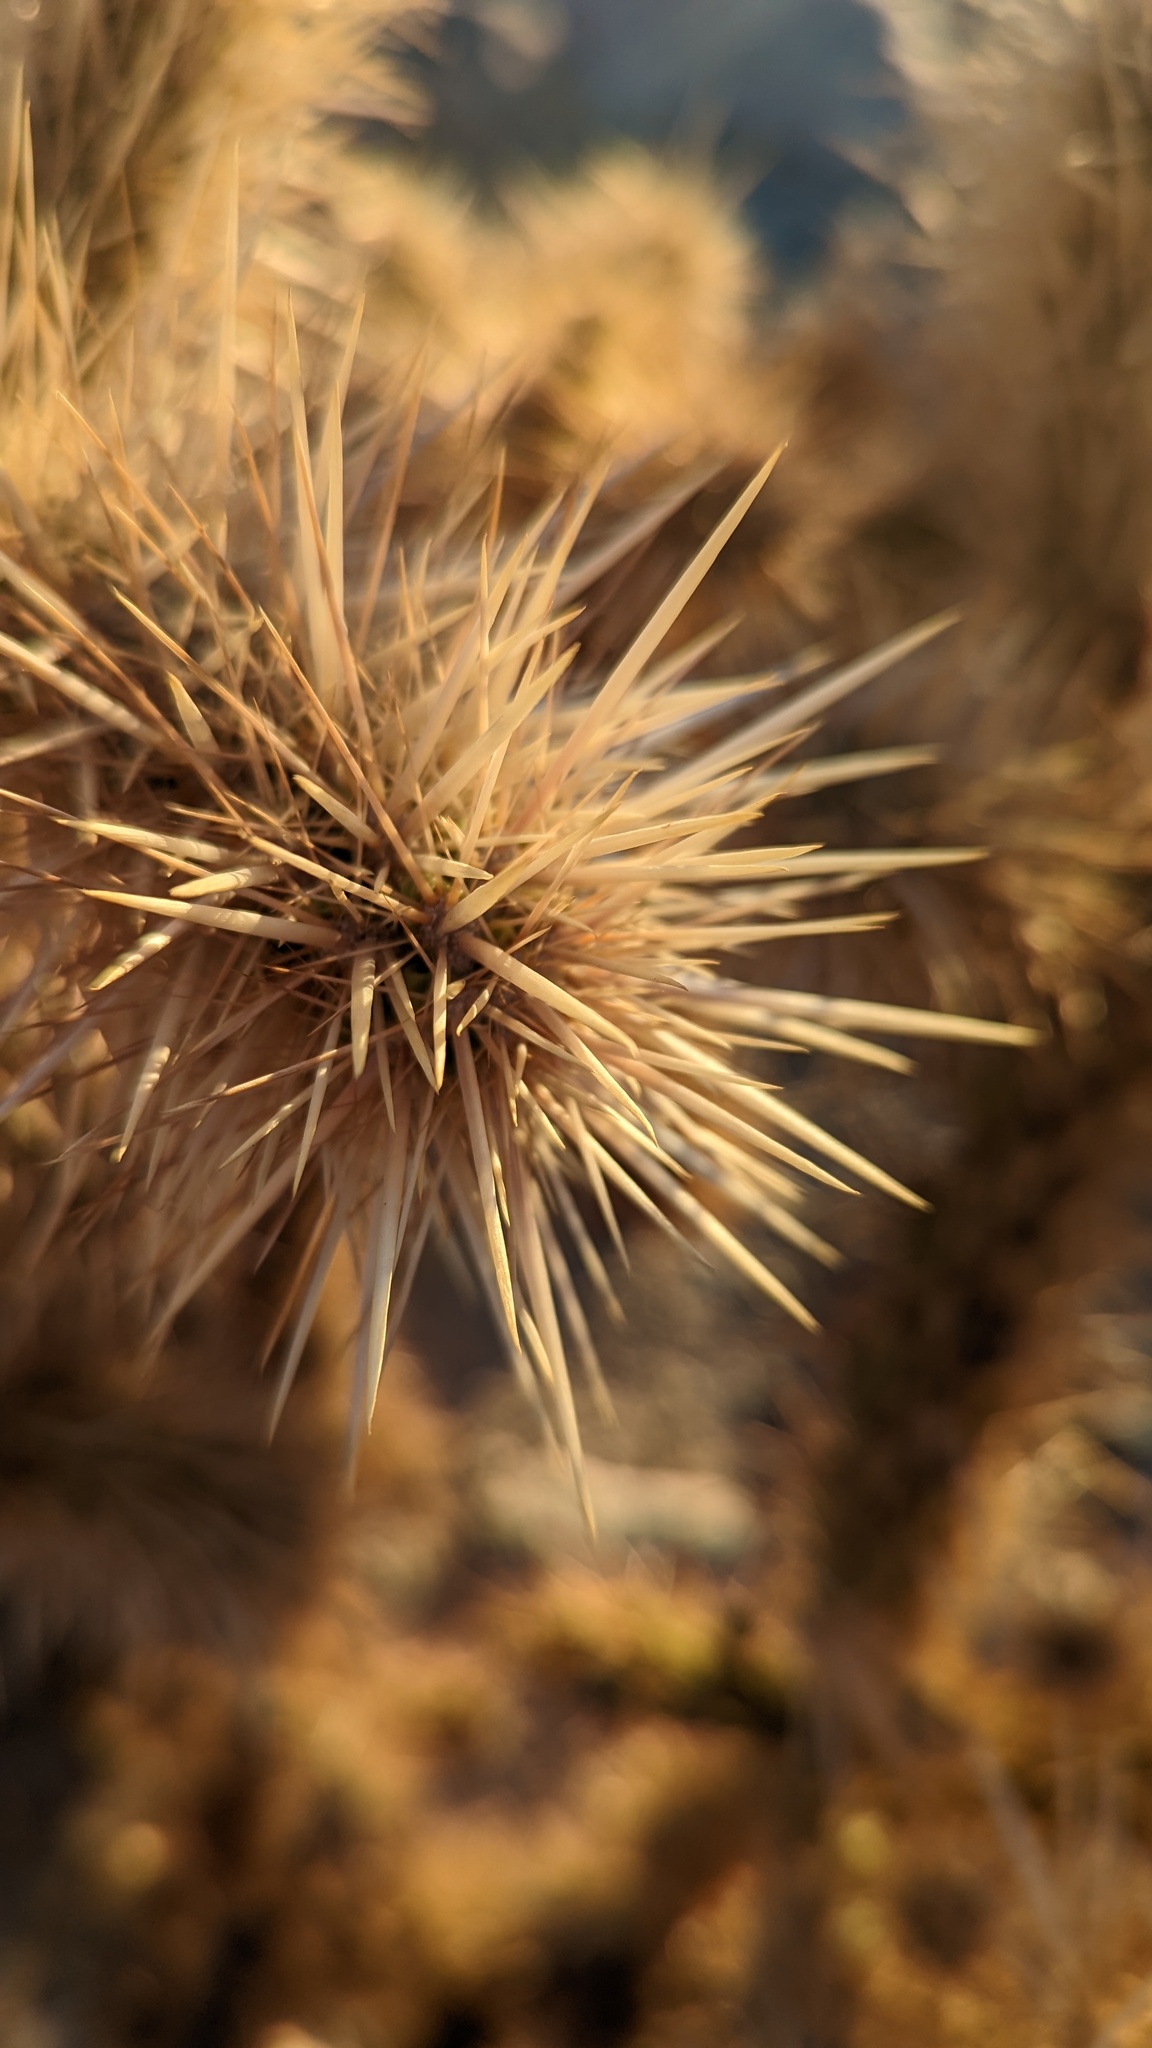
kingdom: Plantae
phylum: Tracheophyta
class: Magnoliopsida
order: Caryophyllales
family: Cactaceae
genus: Cylindropuntia
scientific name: Cylindropuntia echinocarpa
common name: Ground cholla
